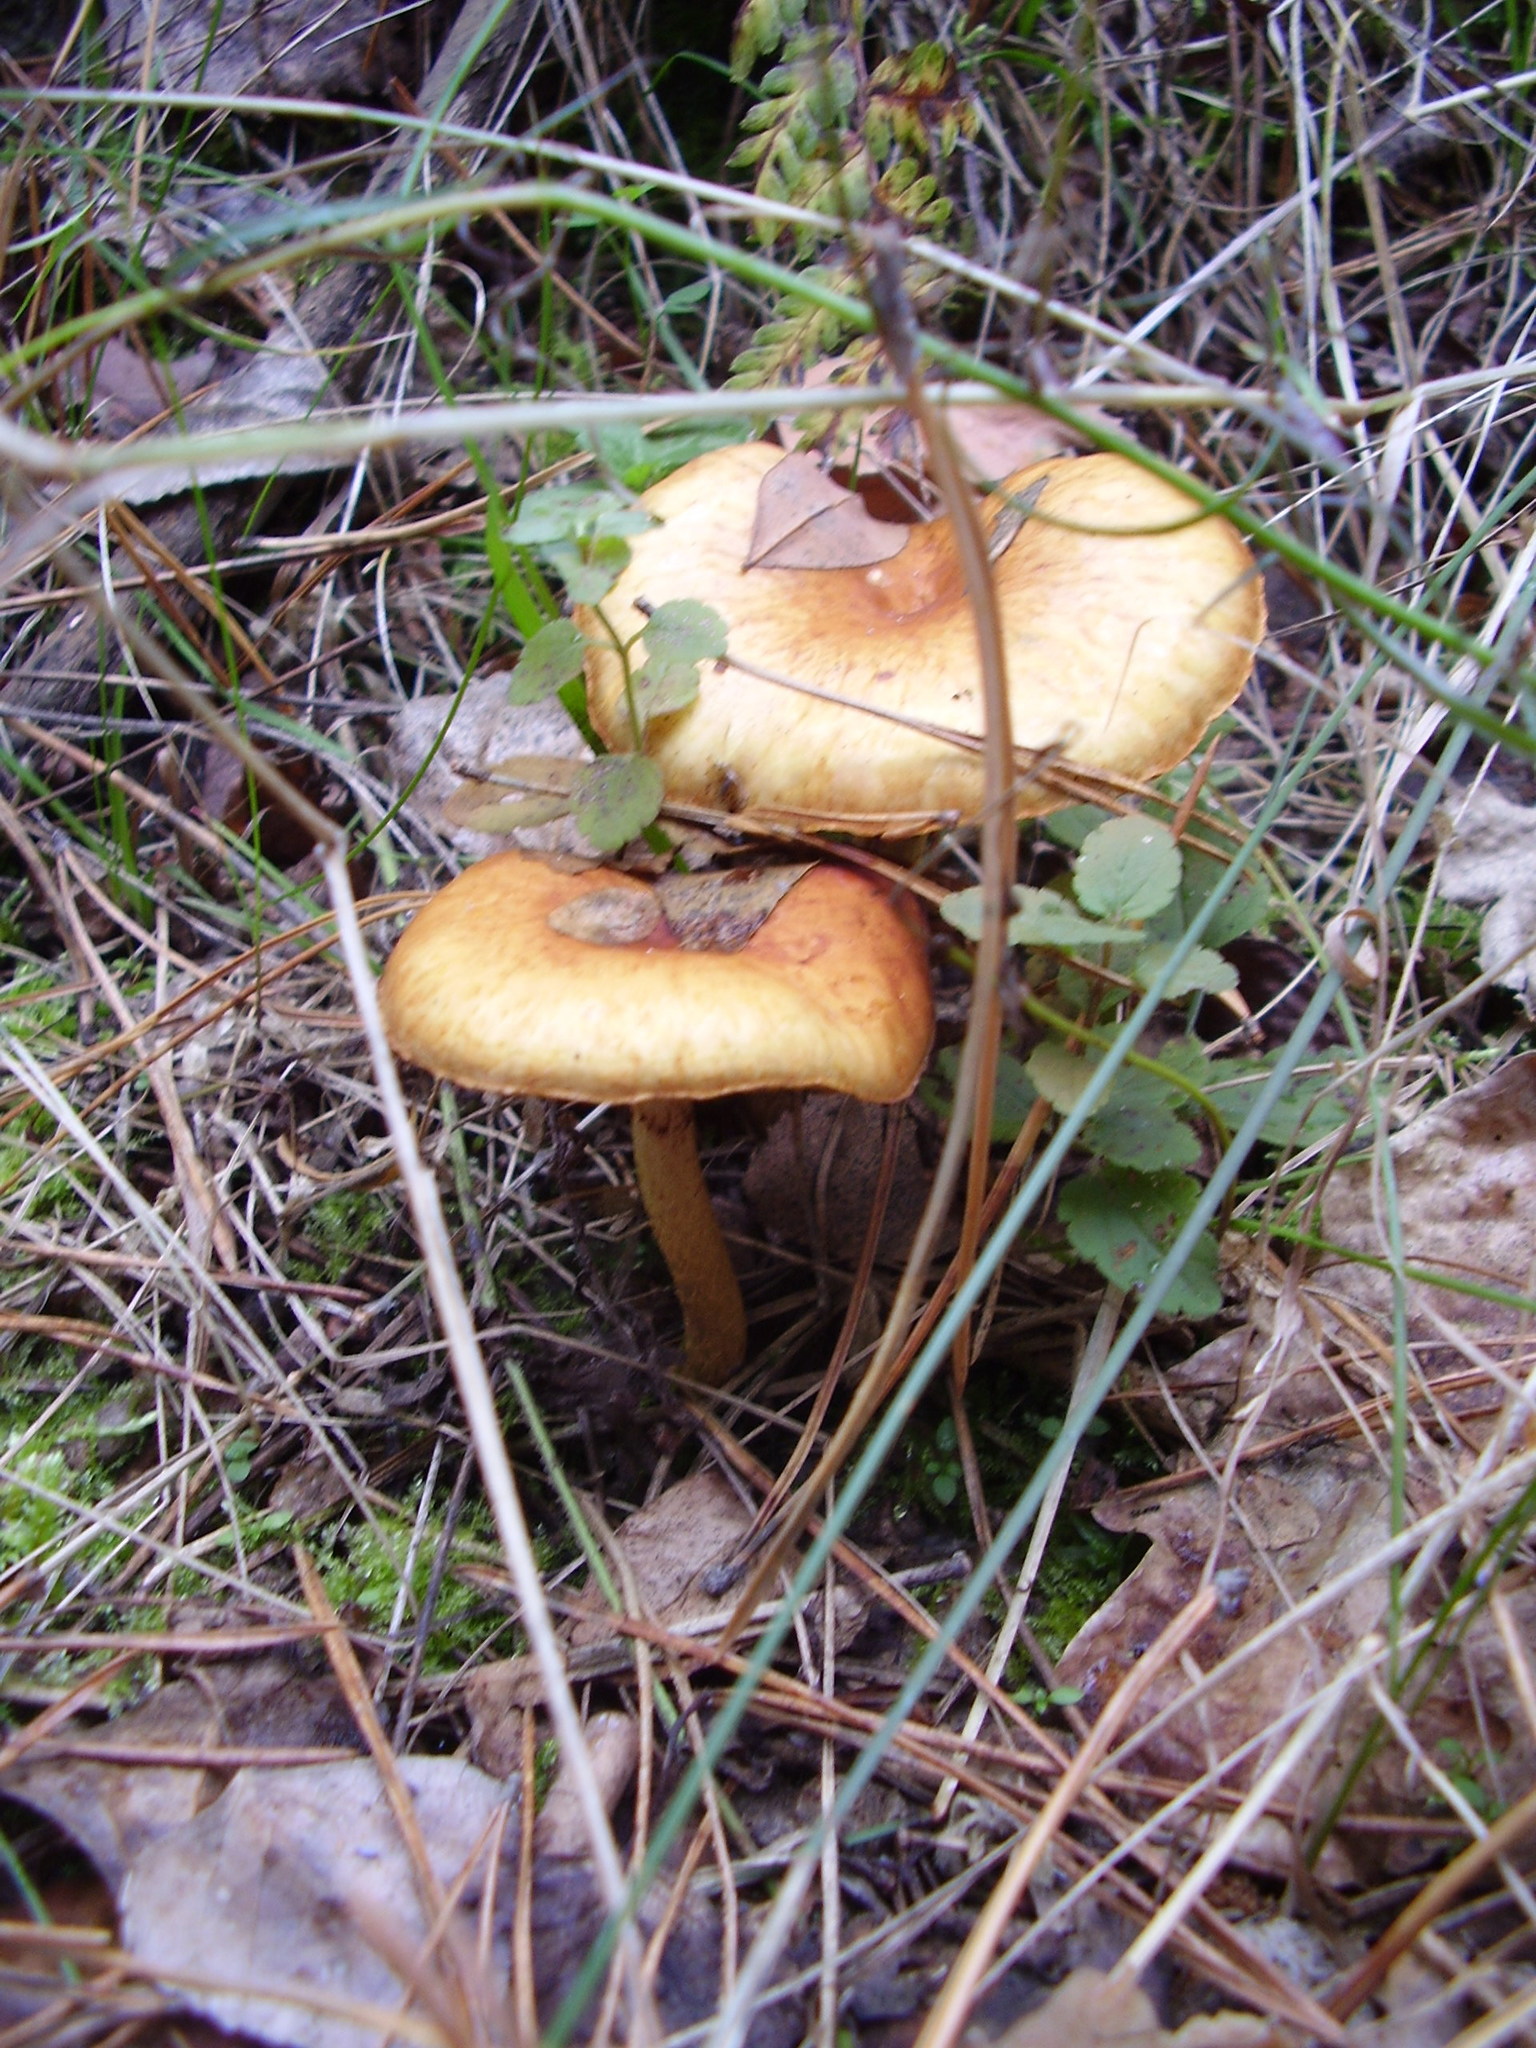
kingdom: Fungi
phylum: Basidiomycota
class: Agaricomycetes
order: Agaricales
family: Hymenogastraceae
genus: Gymnopilus
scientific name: Gymnopilus penetrans
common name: Common rustgill
